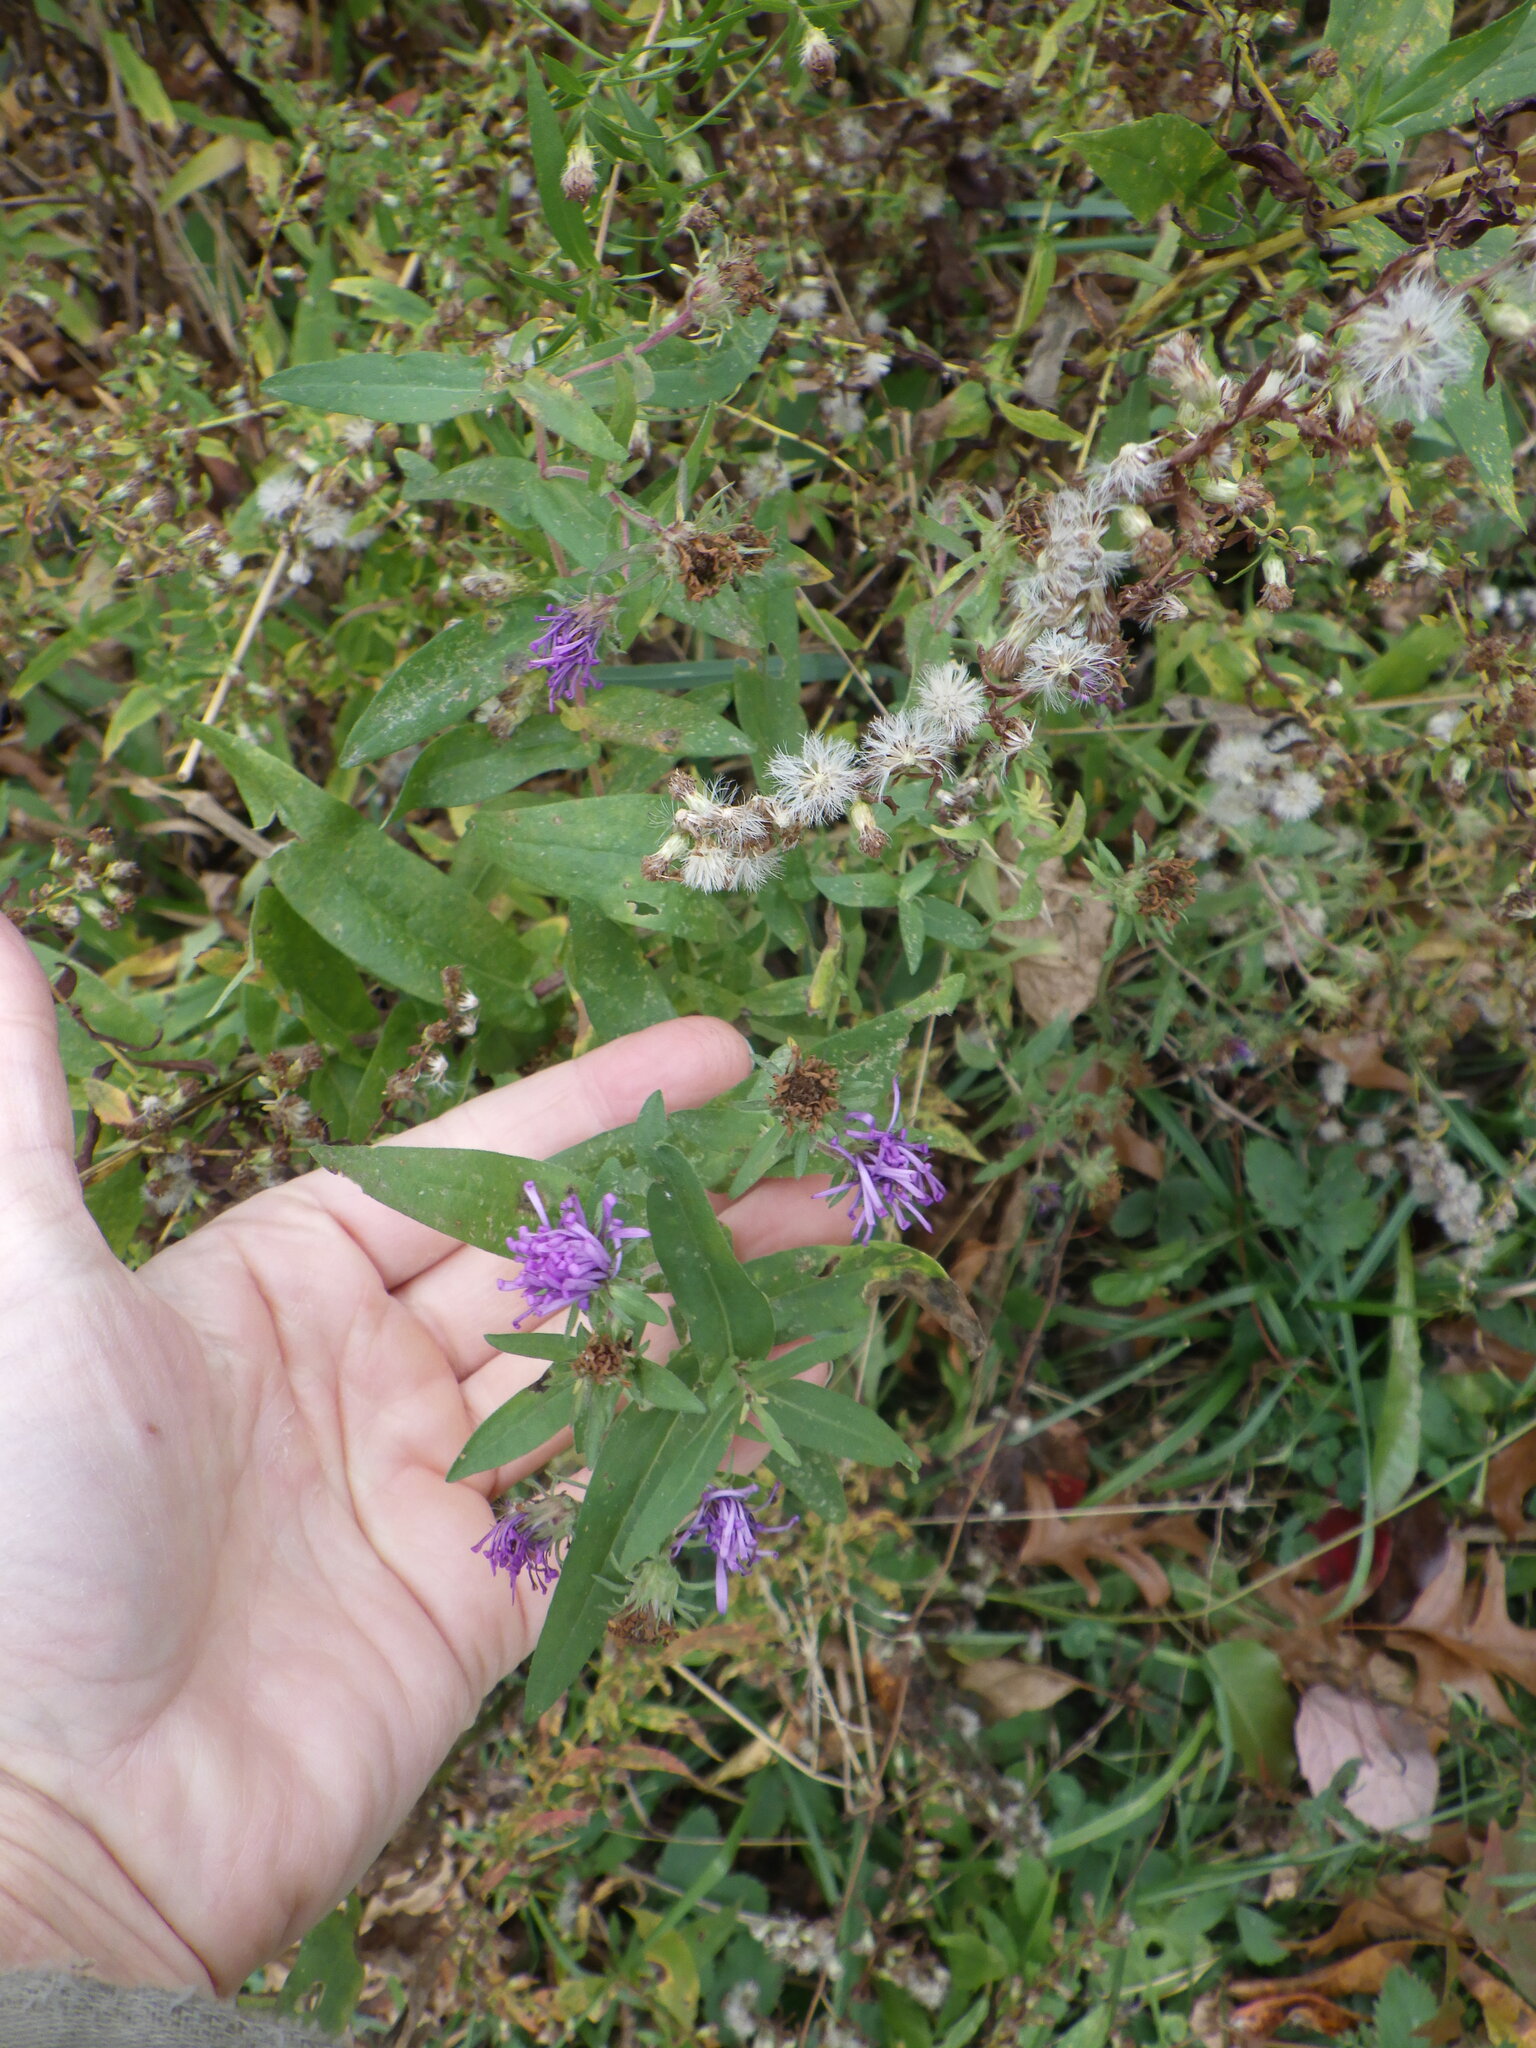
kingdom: Plantae
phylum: Tracheophyta
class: Magnoliopsida
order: Asterales
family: Asteraceae
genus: Symphyotrichum
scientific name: Symphyotrichum novae-angliae
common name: Michaelmas daisy
